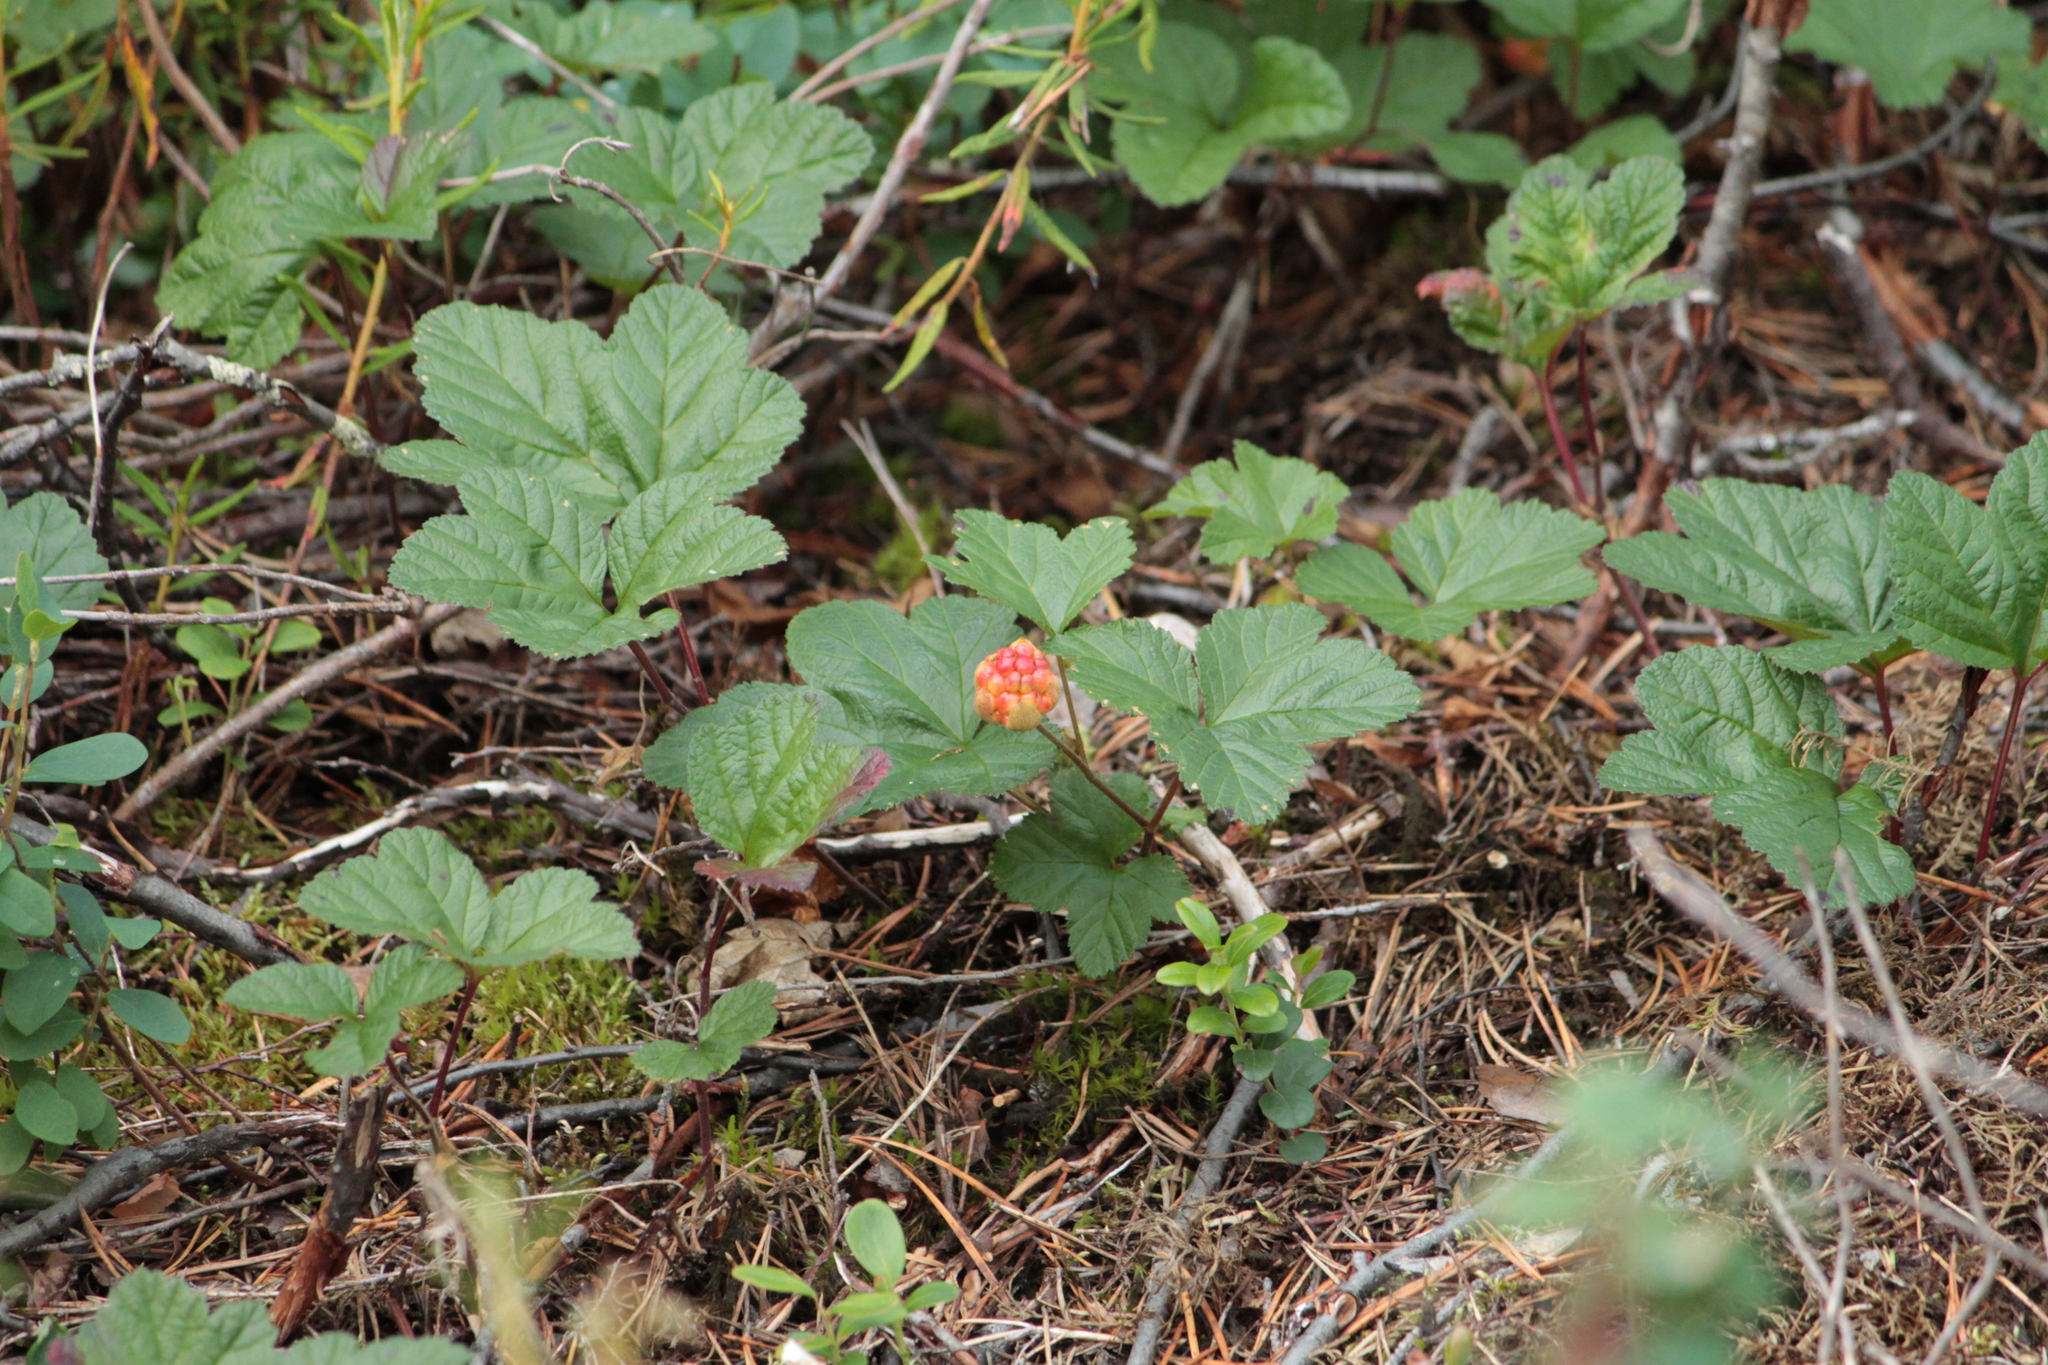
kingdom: Plantae
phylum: Tracheophyta
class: Magnoliopsida
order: Rosales
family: Rosaceae
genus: Rubus
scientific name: Rubus chamaemorus
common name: Cloudberry
